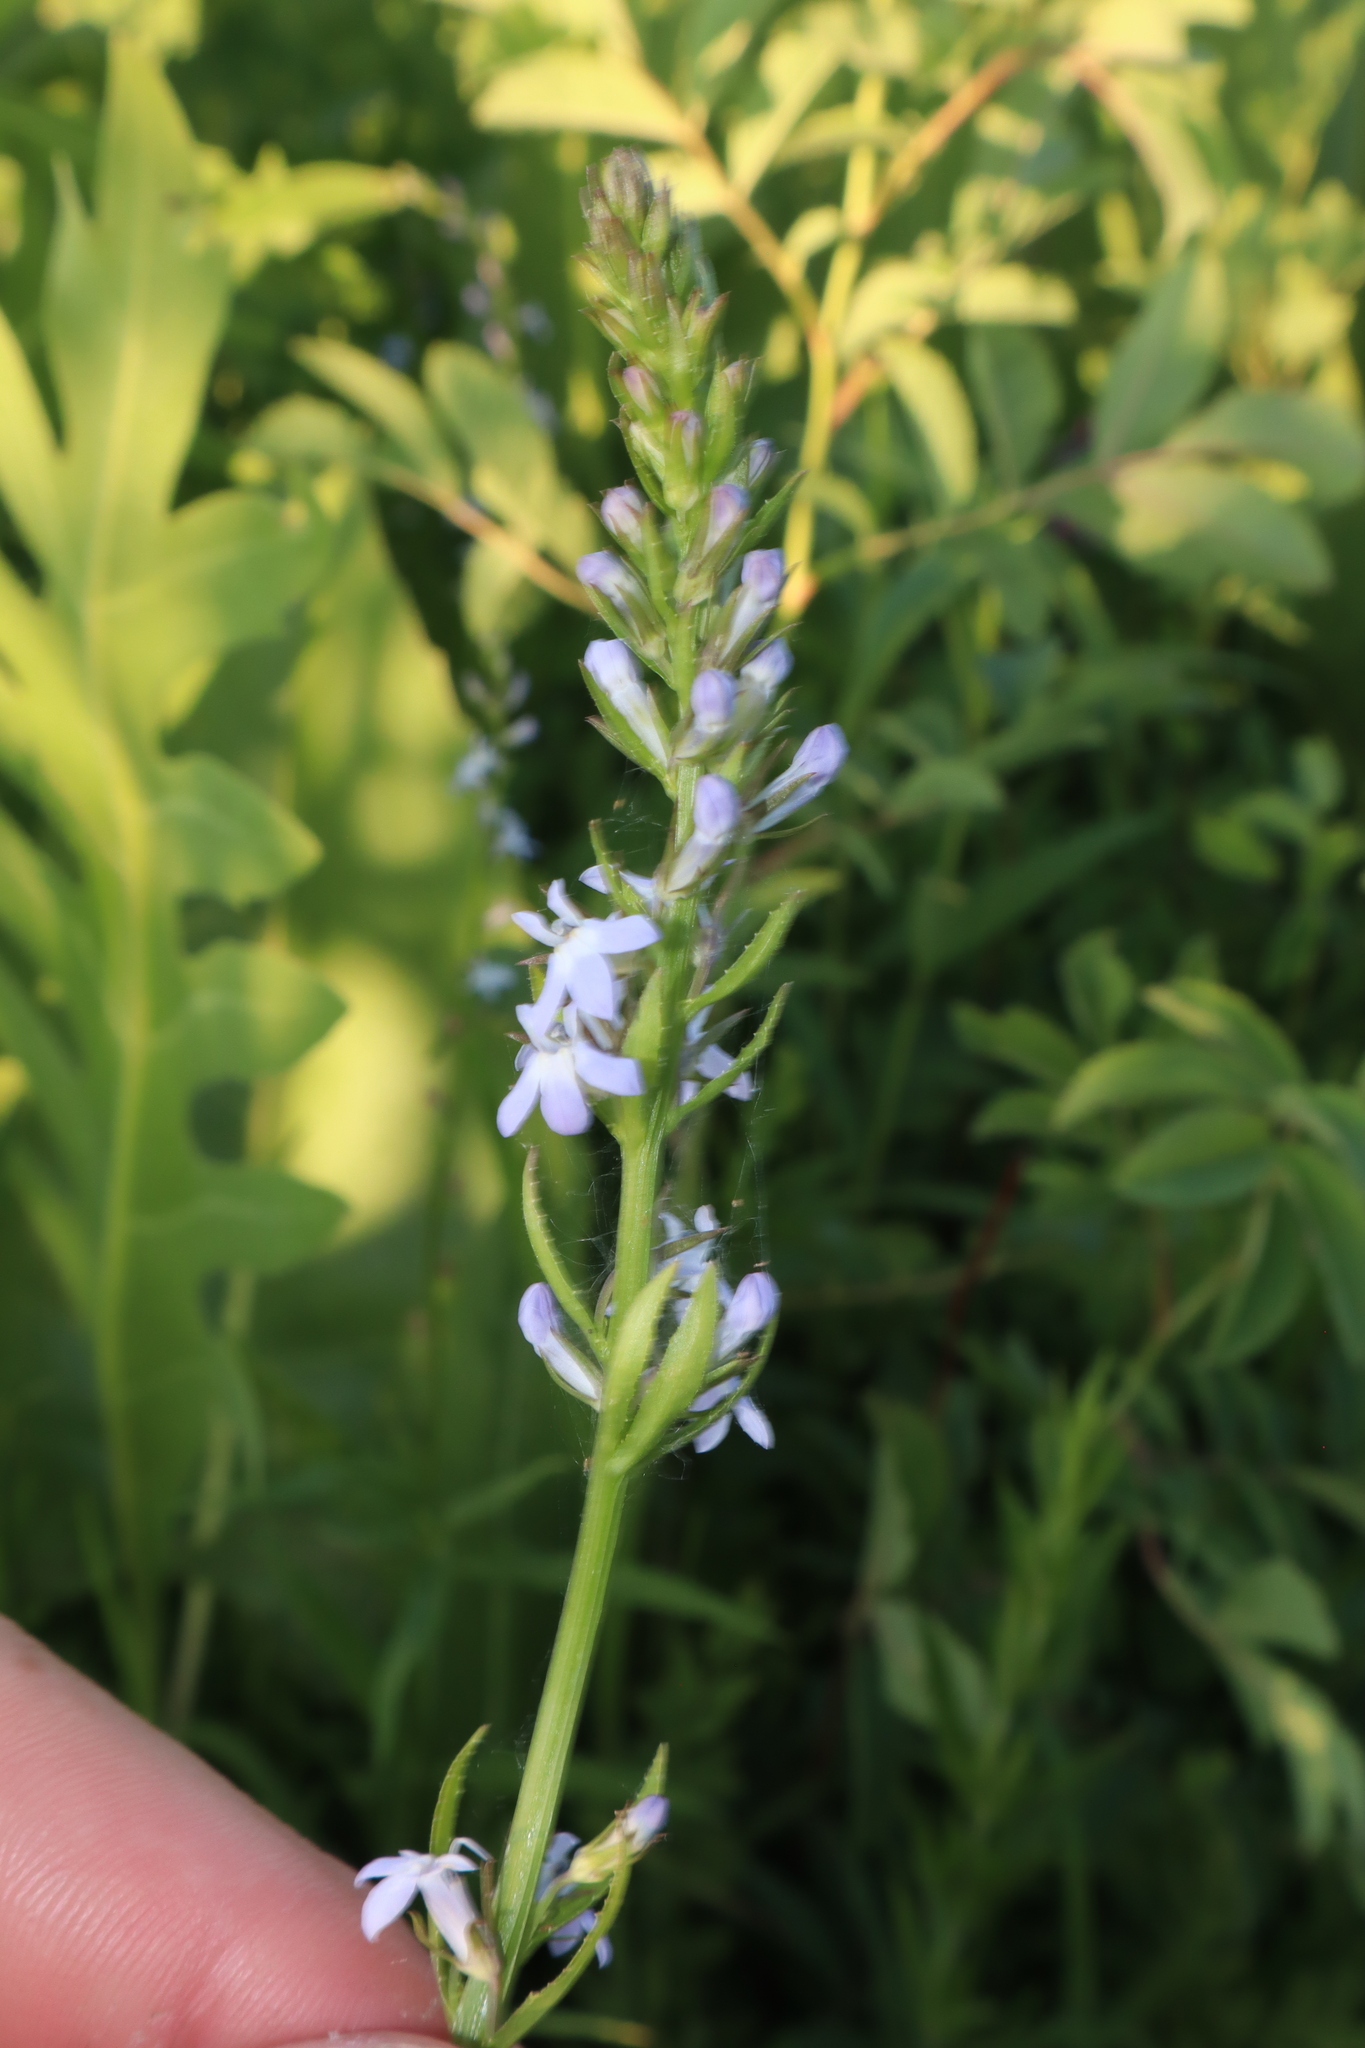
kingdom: Plantae
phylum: Tracheophyta
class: Magnoliopsida
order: Asterales
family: Campanulaceae
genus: Lobelia
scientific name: Lobelia spicata
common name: Pale-spike lobelia
